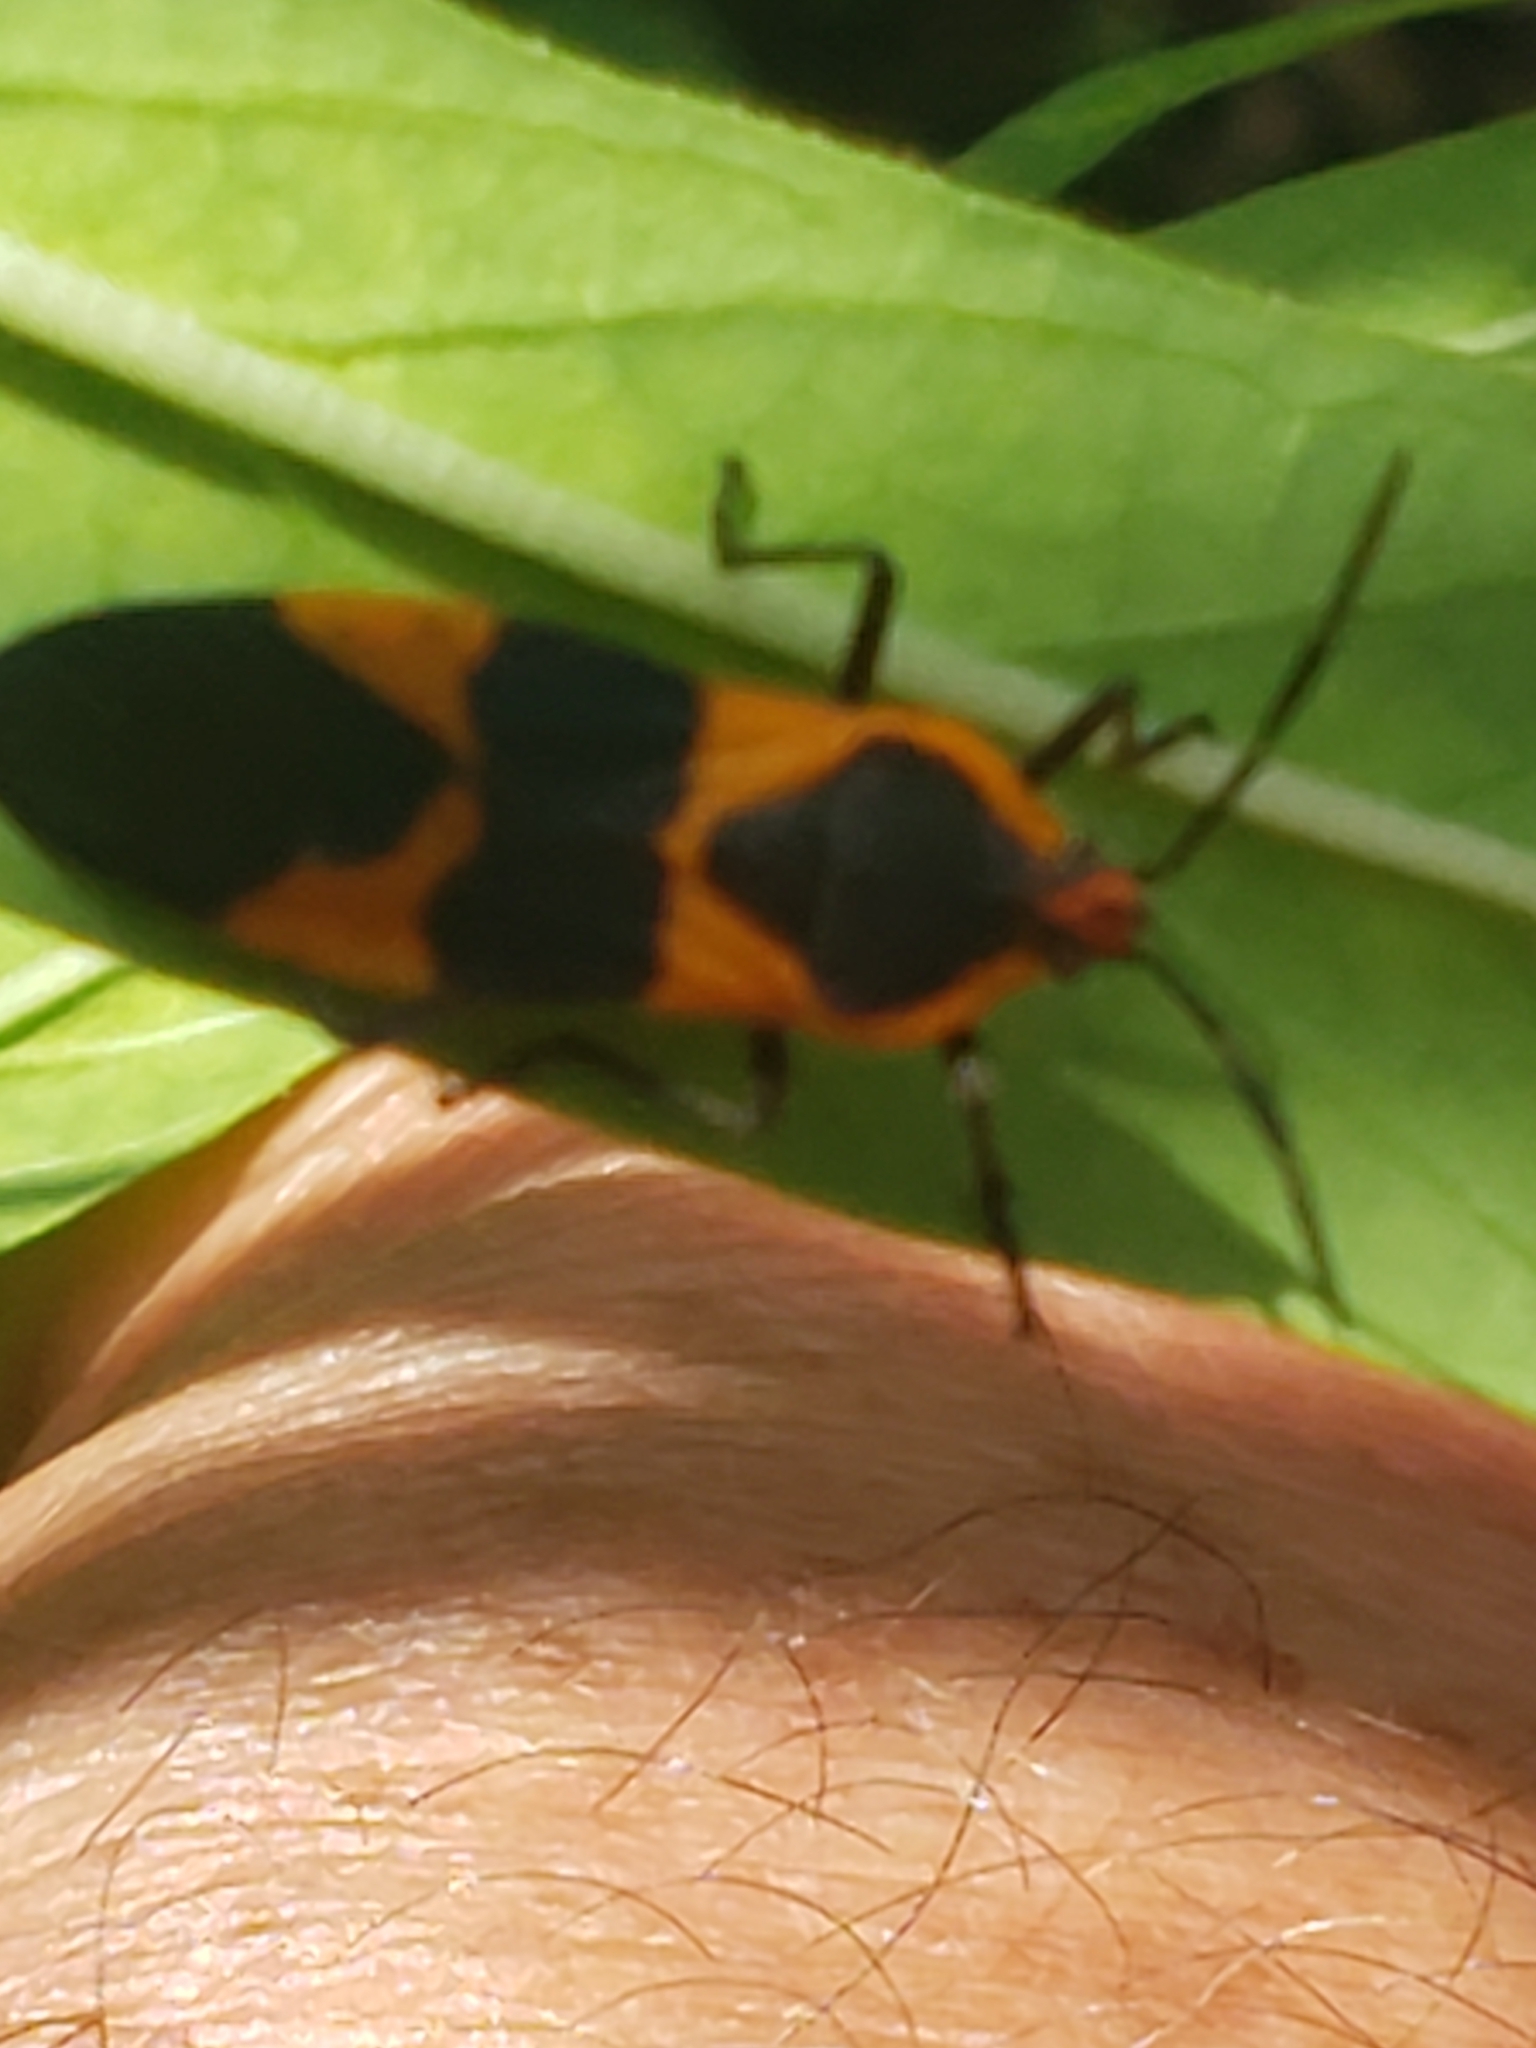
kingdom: Animalia
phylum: Arthropoda
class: Insecta
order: Hemiptera
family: Lygaeidae
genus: Oncopeltus
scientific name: Oncopeltus fasciatus
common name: Large milkweed bug
